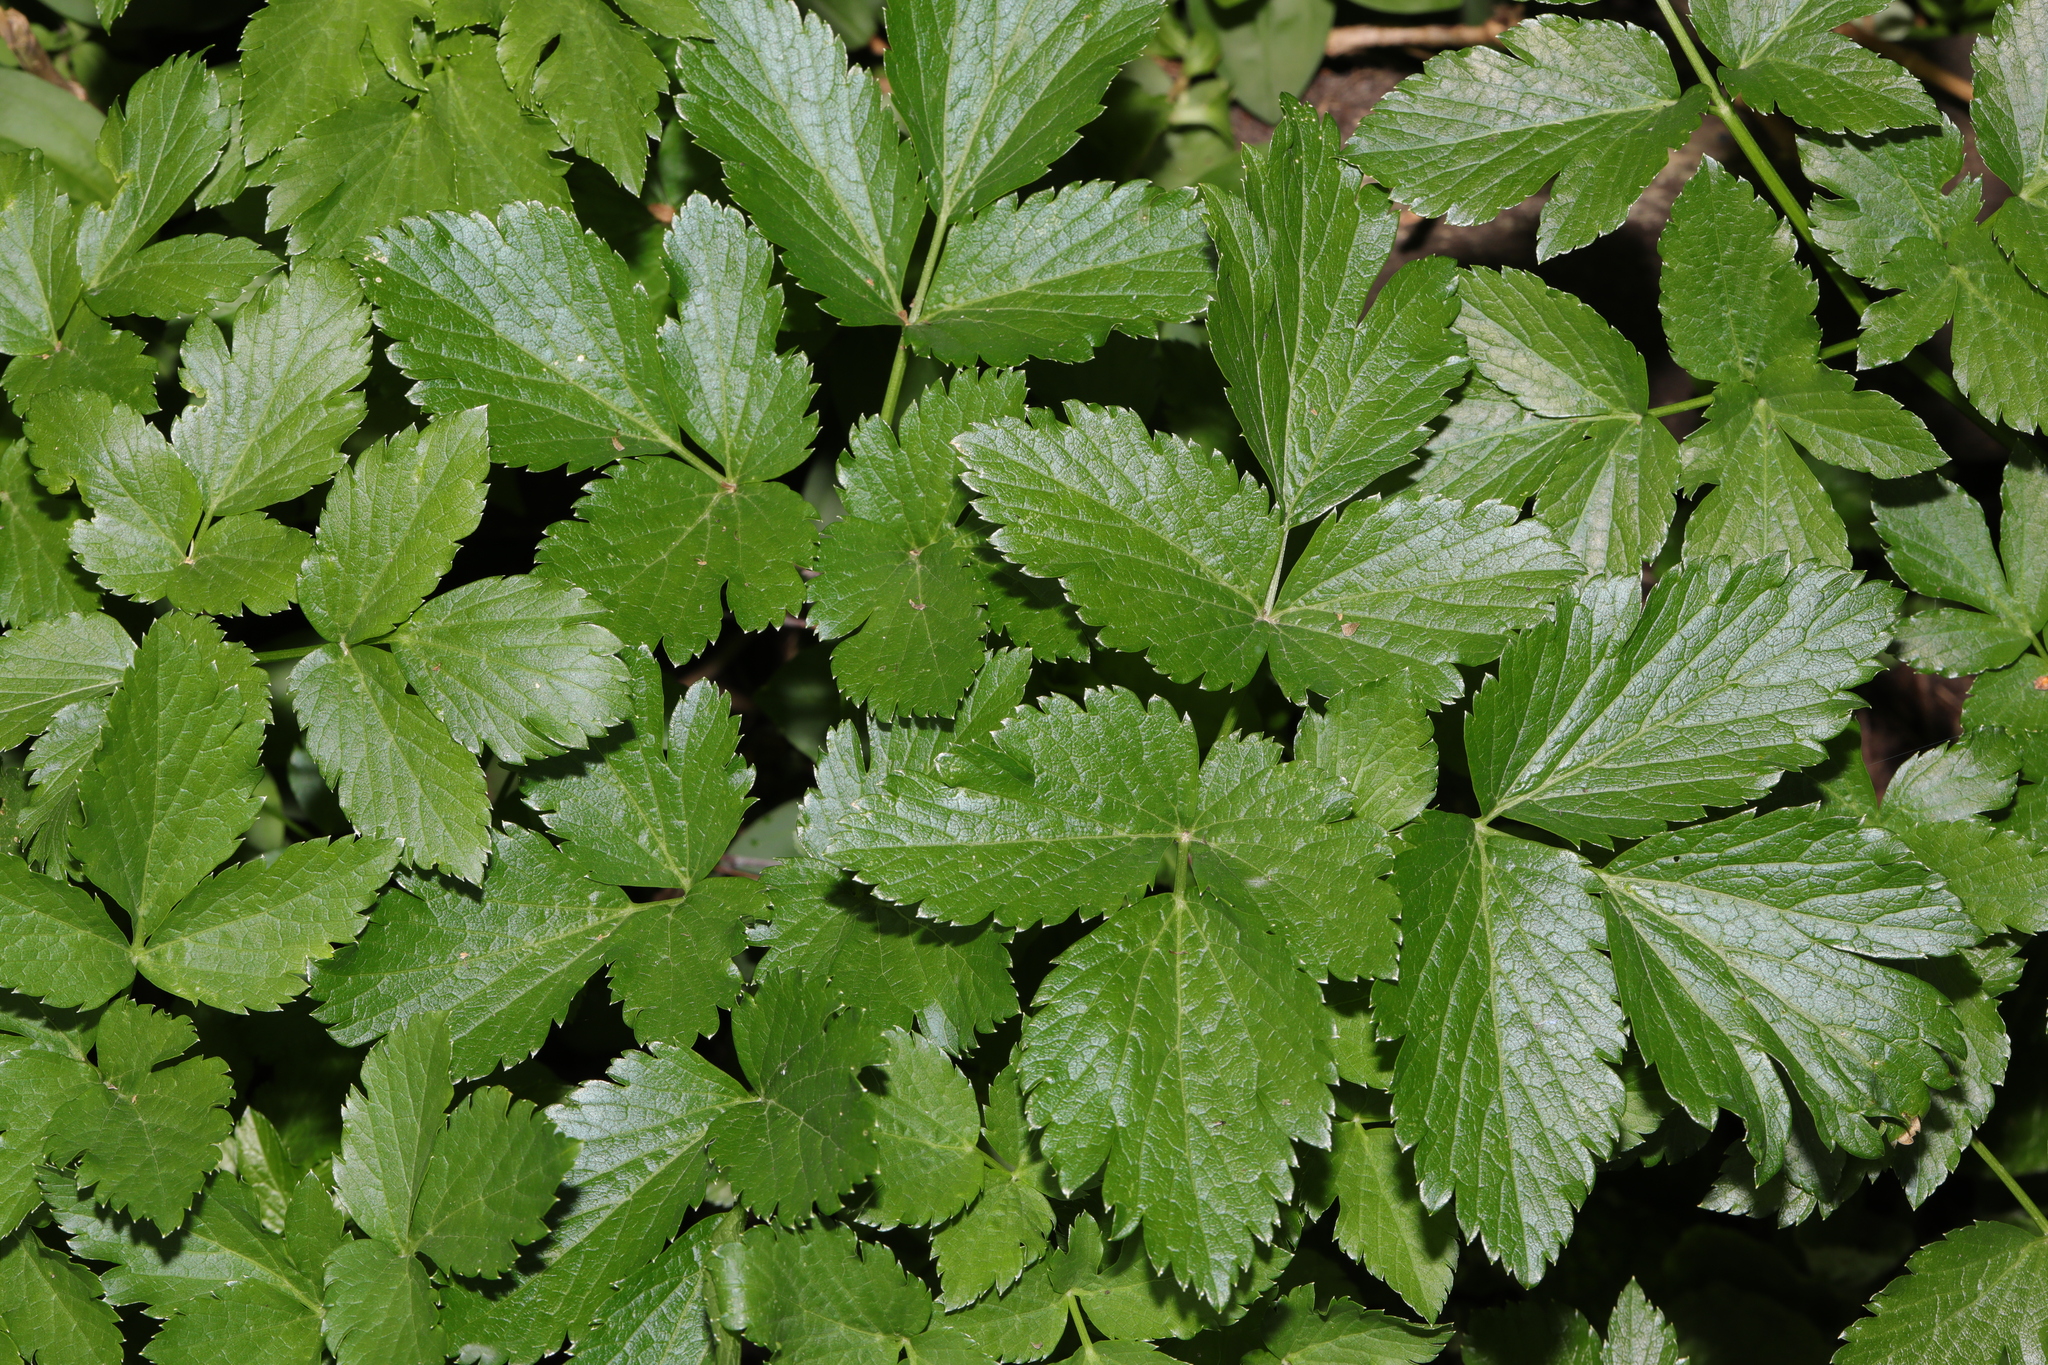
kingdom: Plantae
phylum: Tracheophyta
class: Magnoliopsida
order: Apiales
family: Apiaceae
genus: Smyrnium
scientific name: Smyrnium olusatrum
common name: Alexanders
